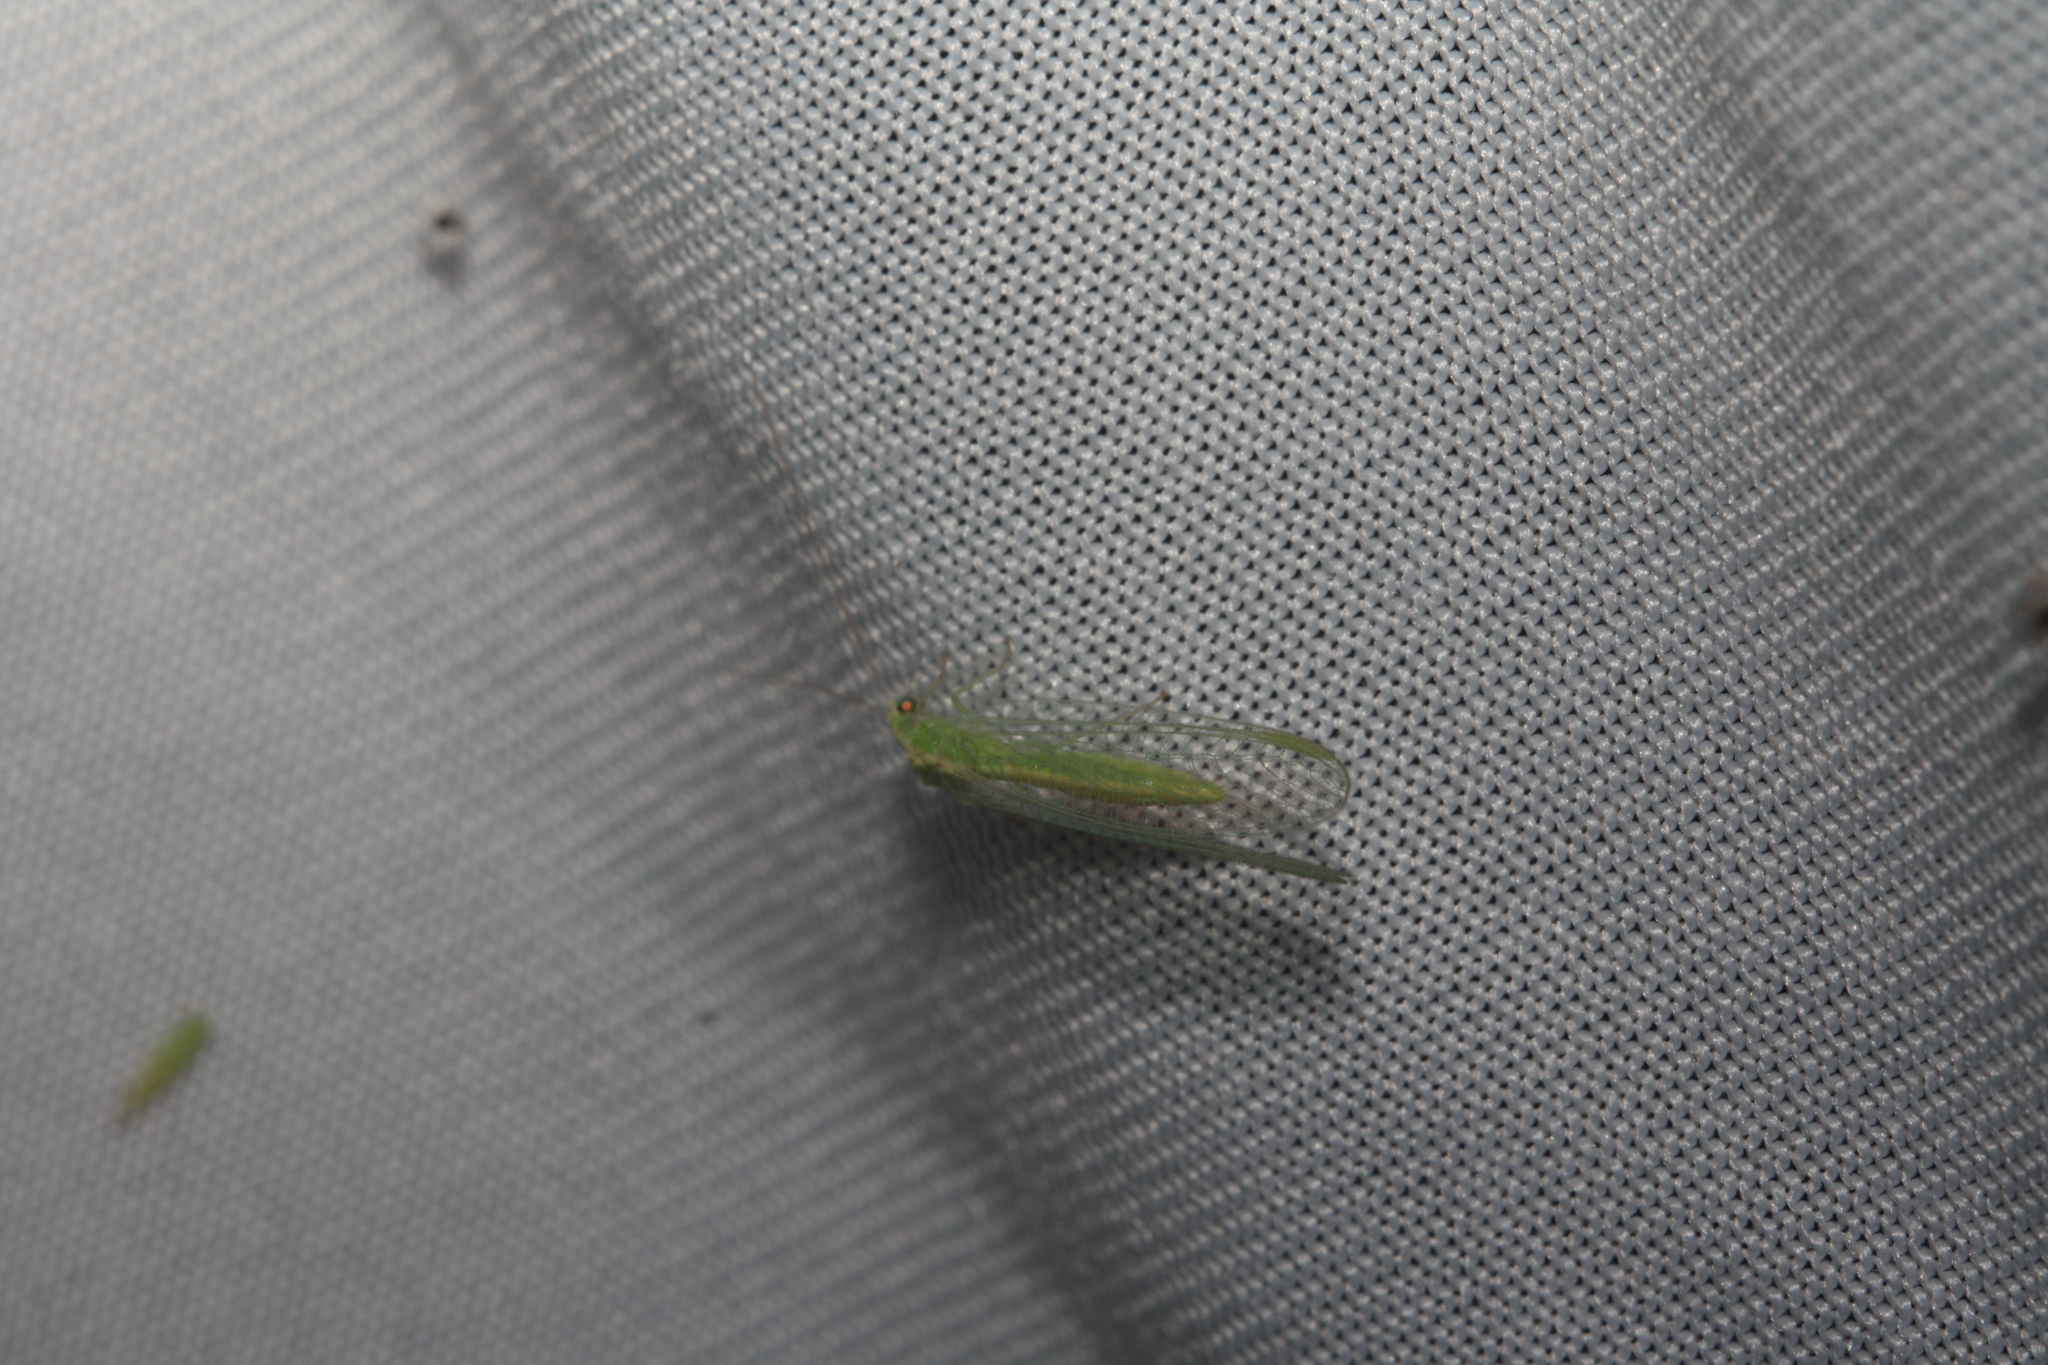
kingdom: Animalia
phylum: Arthropoda
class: Insecta
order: Neuroptera
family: Chrysopidae
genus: Chrysoperla
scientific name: Chrysoperla
